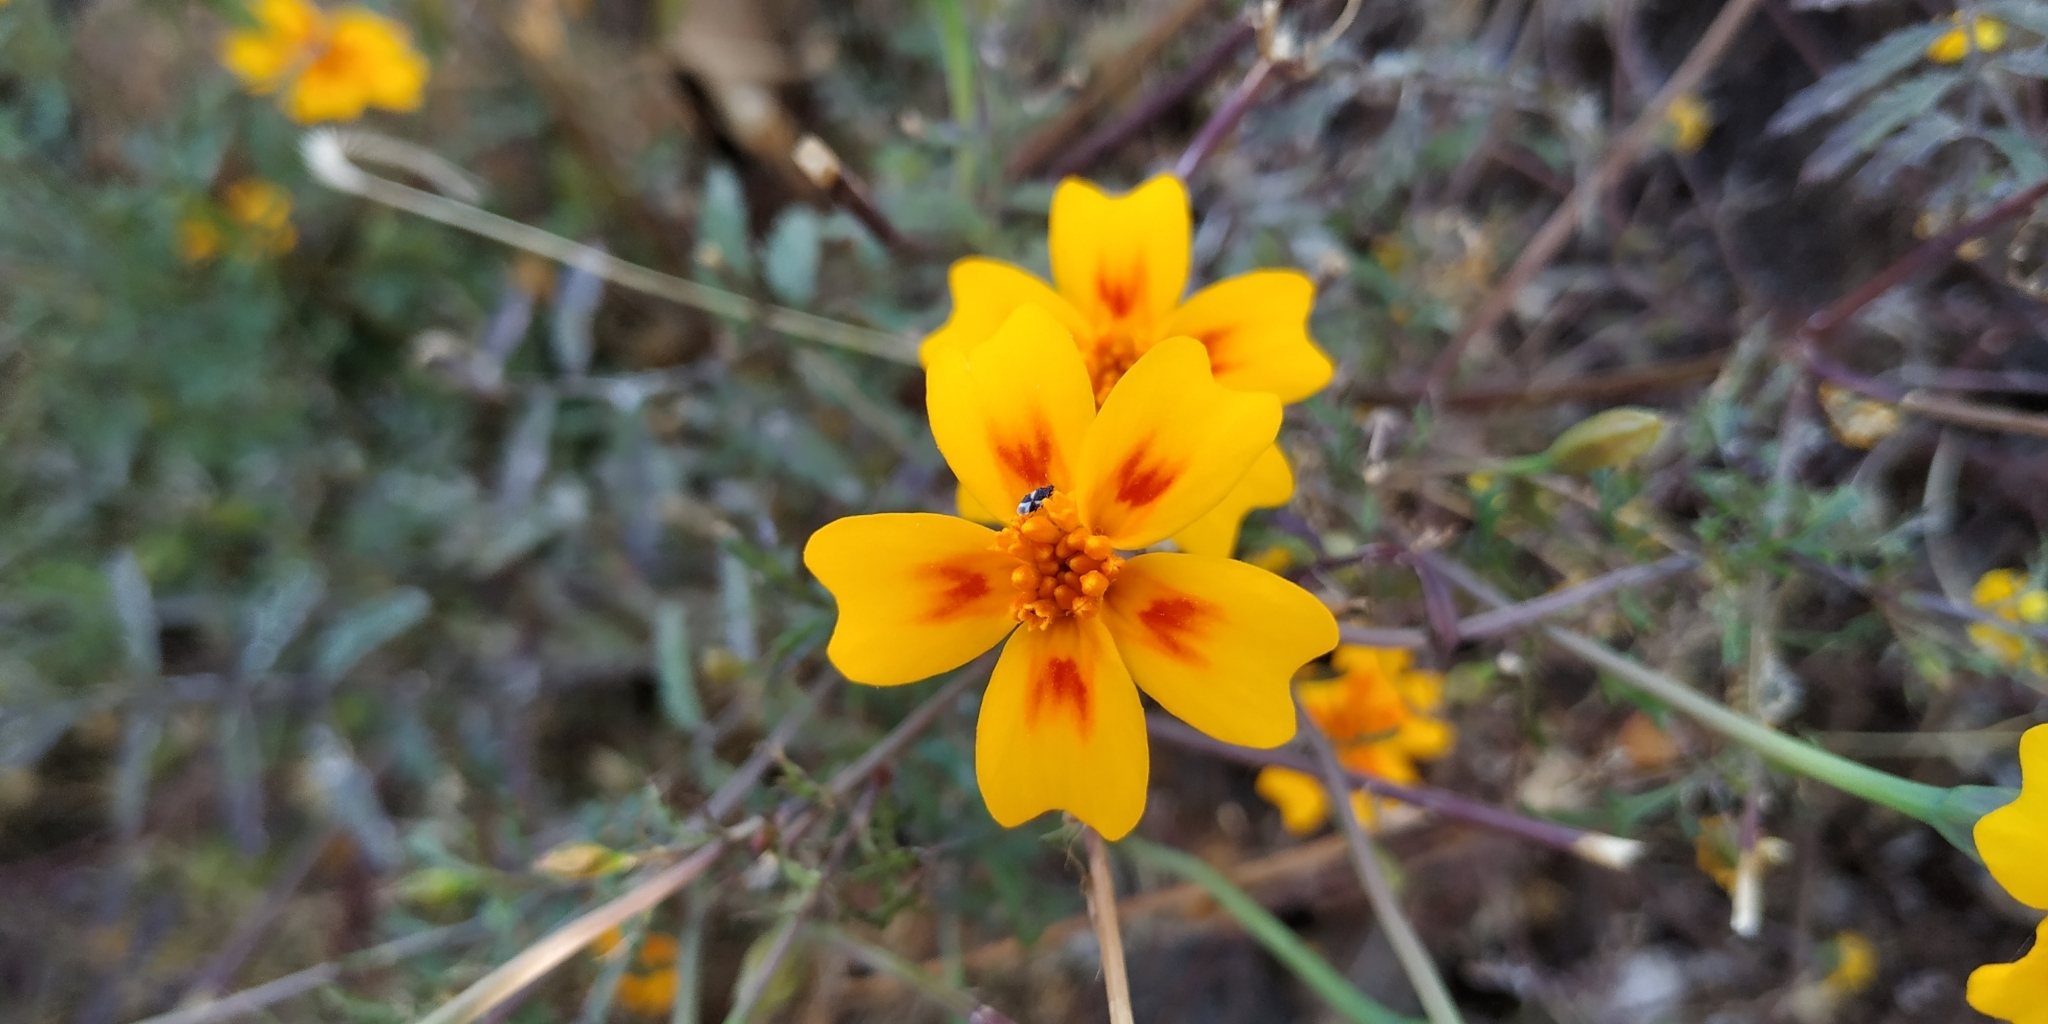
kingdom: Plantae
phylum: Tracheophyta
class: Magnoliopsida
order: Asterales
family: Asteraceae
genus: Tagetes
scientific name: Tagetes lunulata
